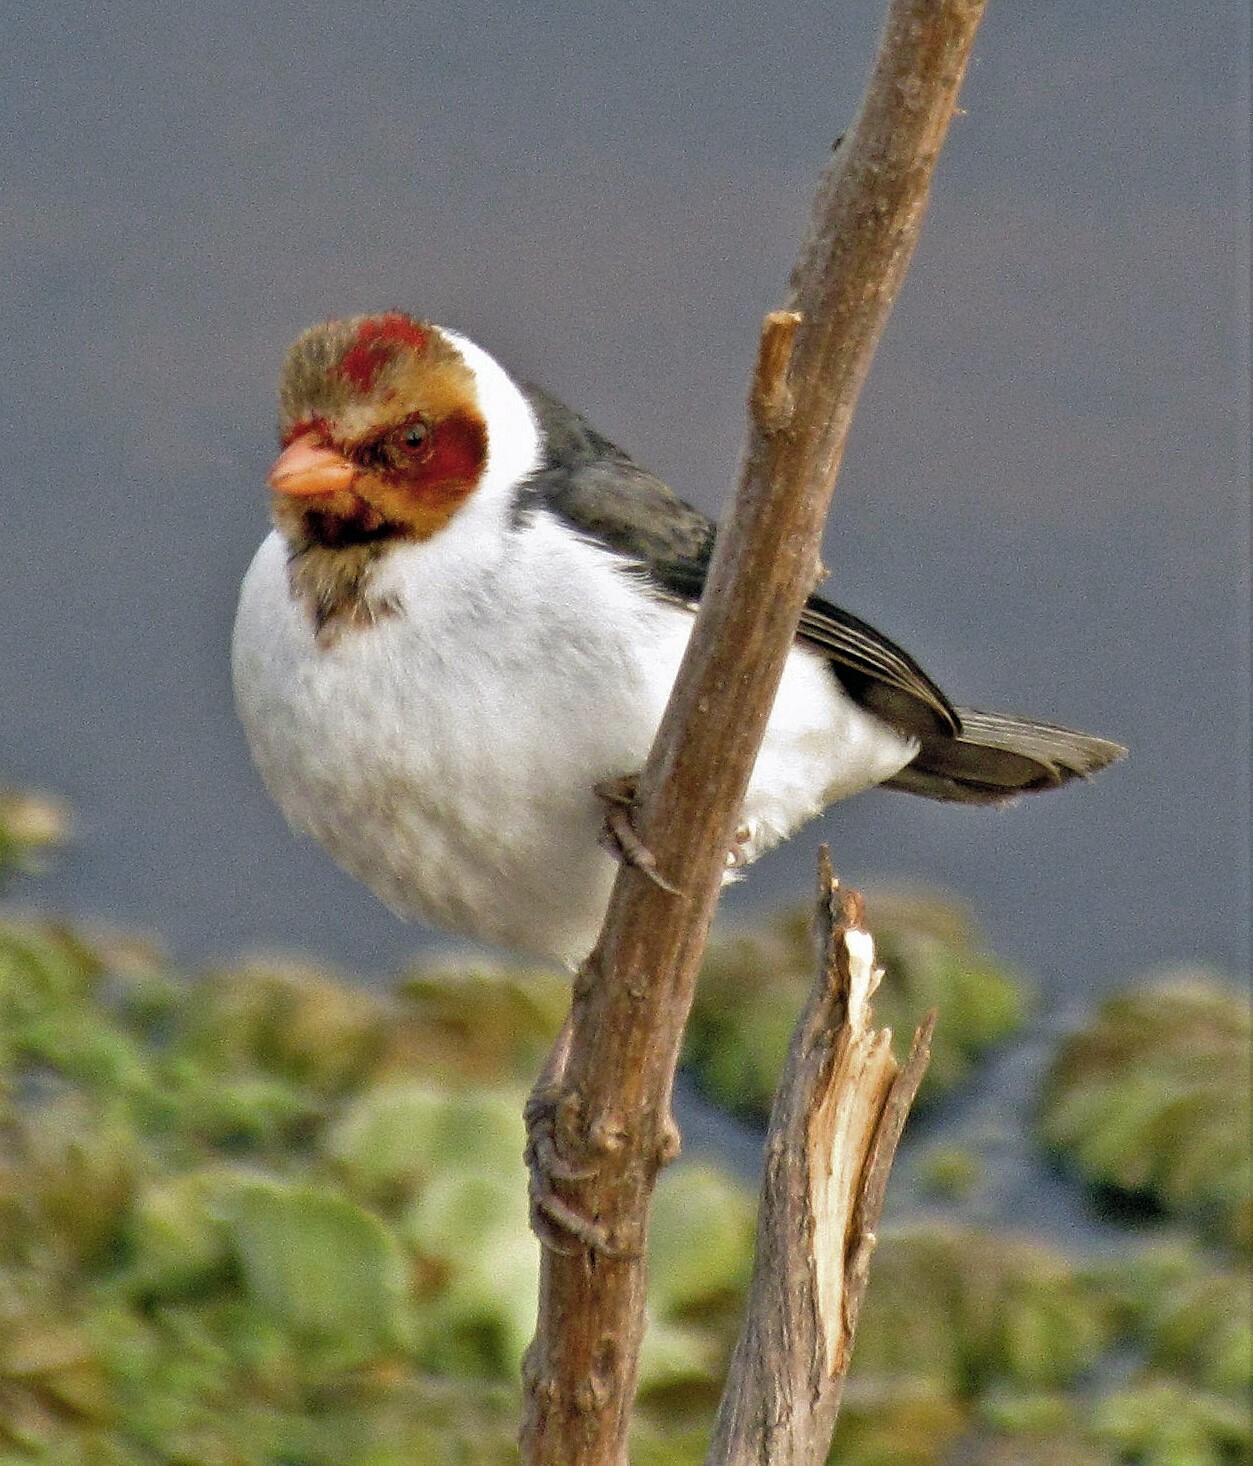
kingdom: Animalia
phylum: Chordata
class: Aves
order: Passeriformes
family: Thraupidae
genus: Paroaria
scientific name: Paroaria capitata
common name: Yellow-billed cardinal
